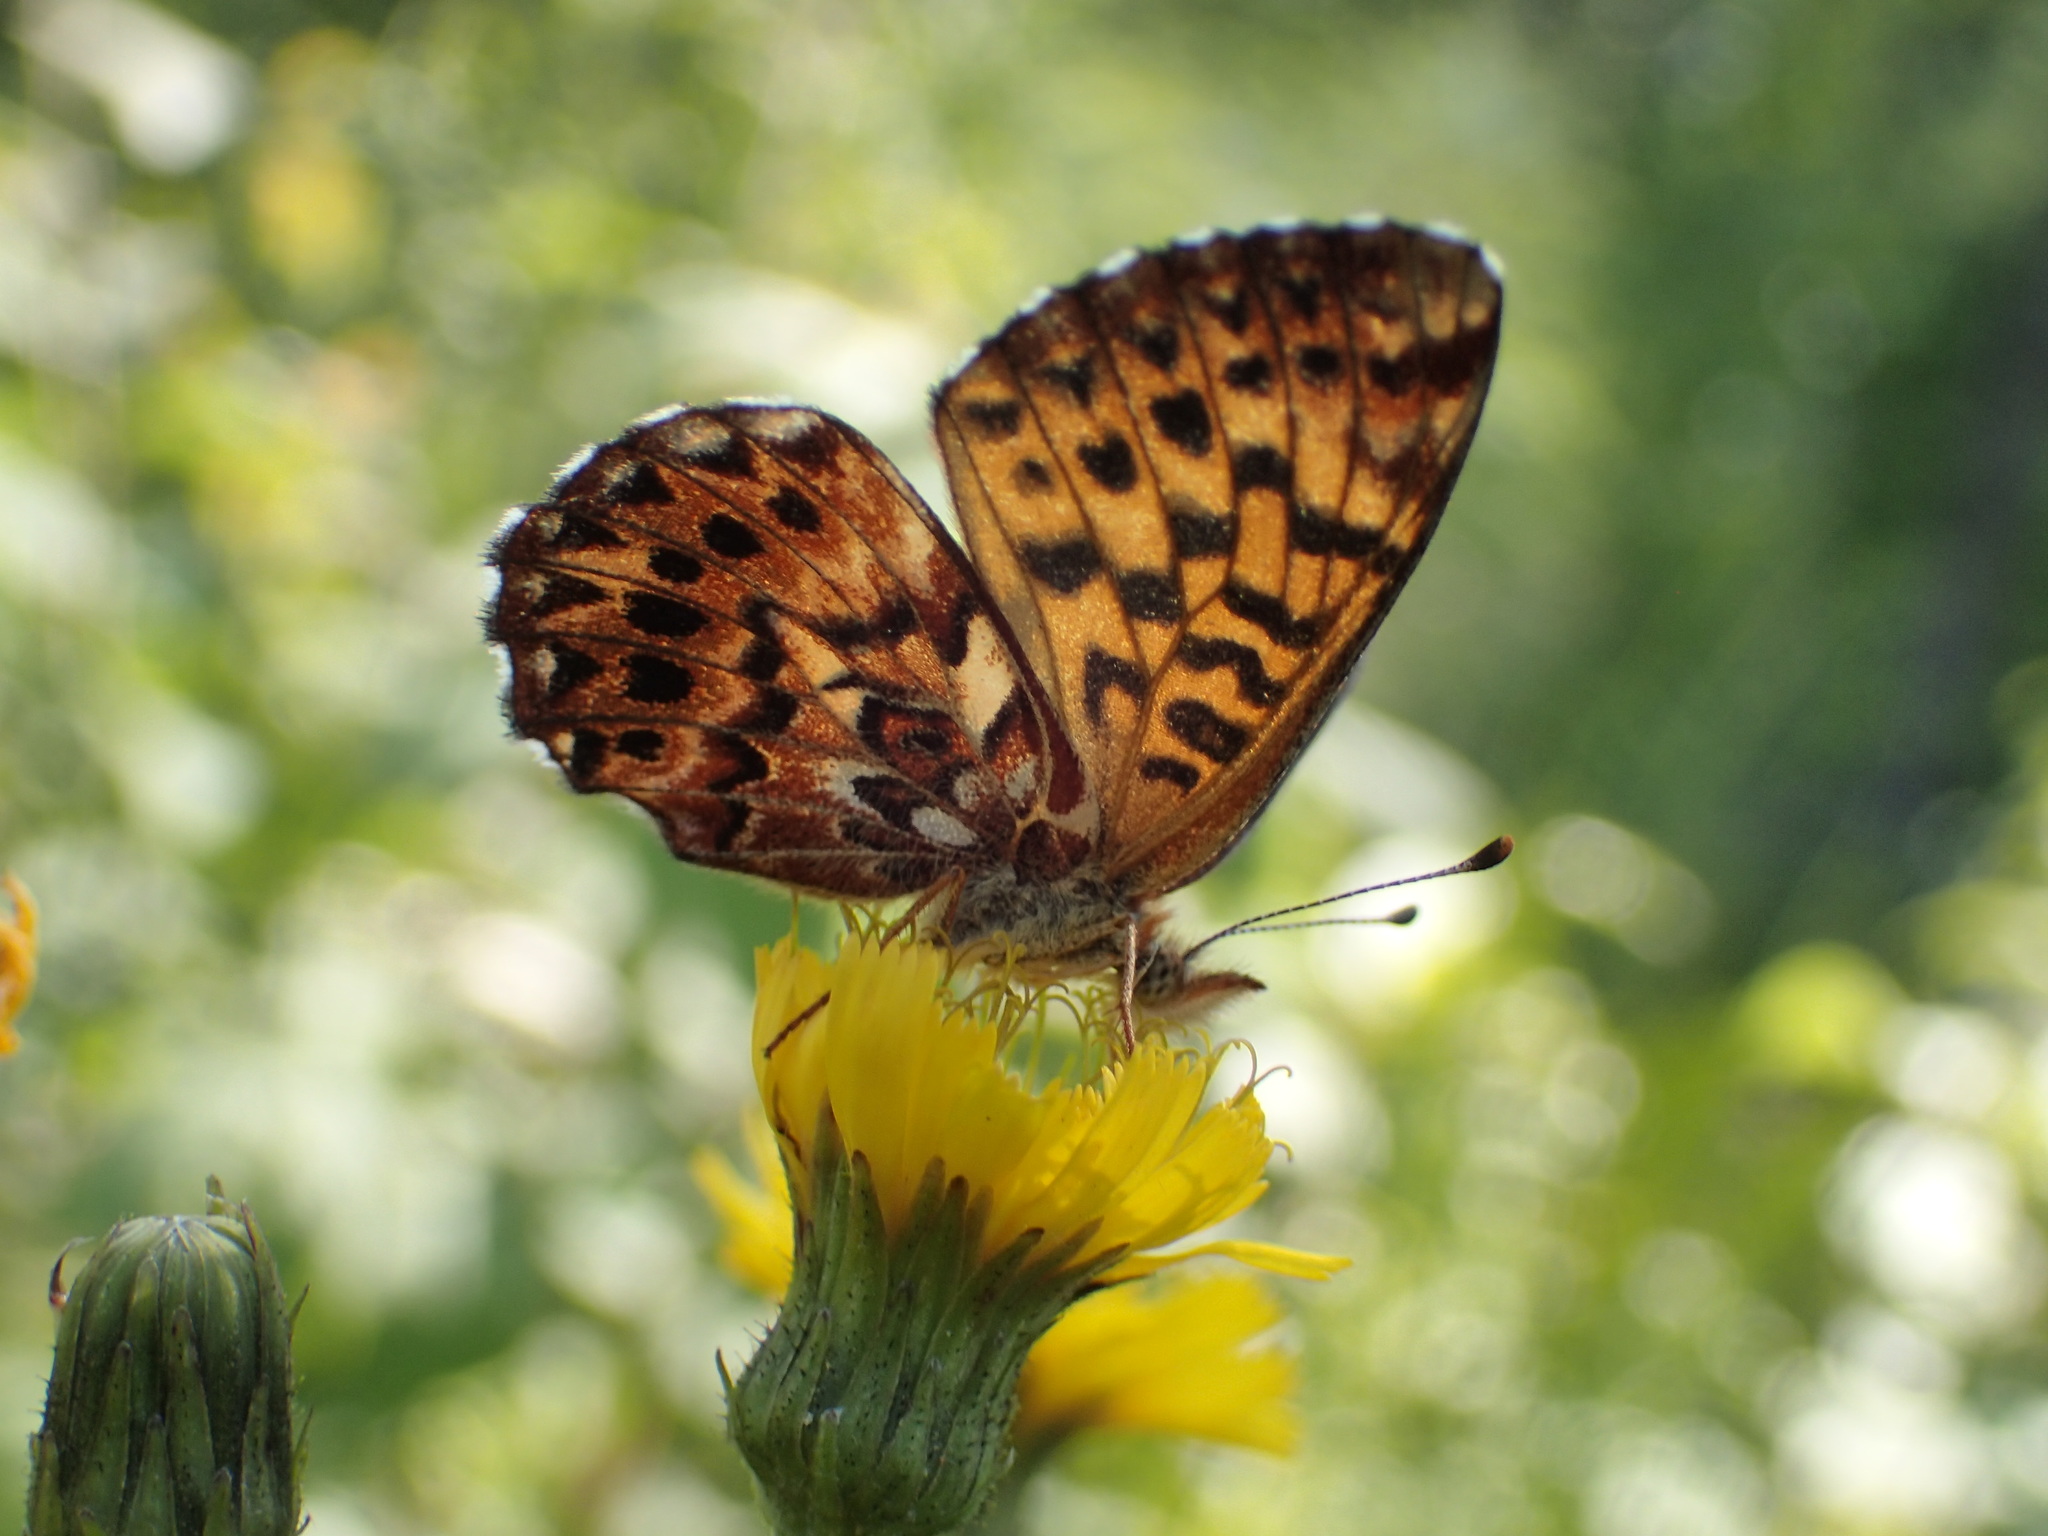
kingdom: Animalia
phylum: Arthropoda
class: Insecta
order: Lepidoptera
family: Nymphalidae
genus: Boloria
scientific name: Boloria chariclea
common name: Arctic fritillary
